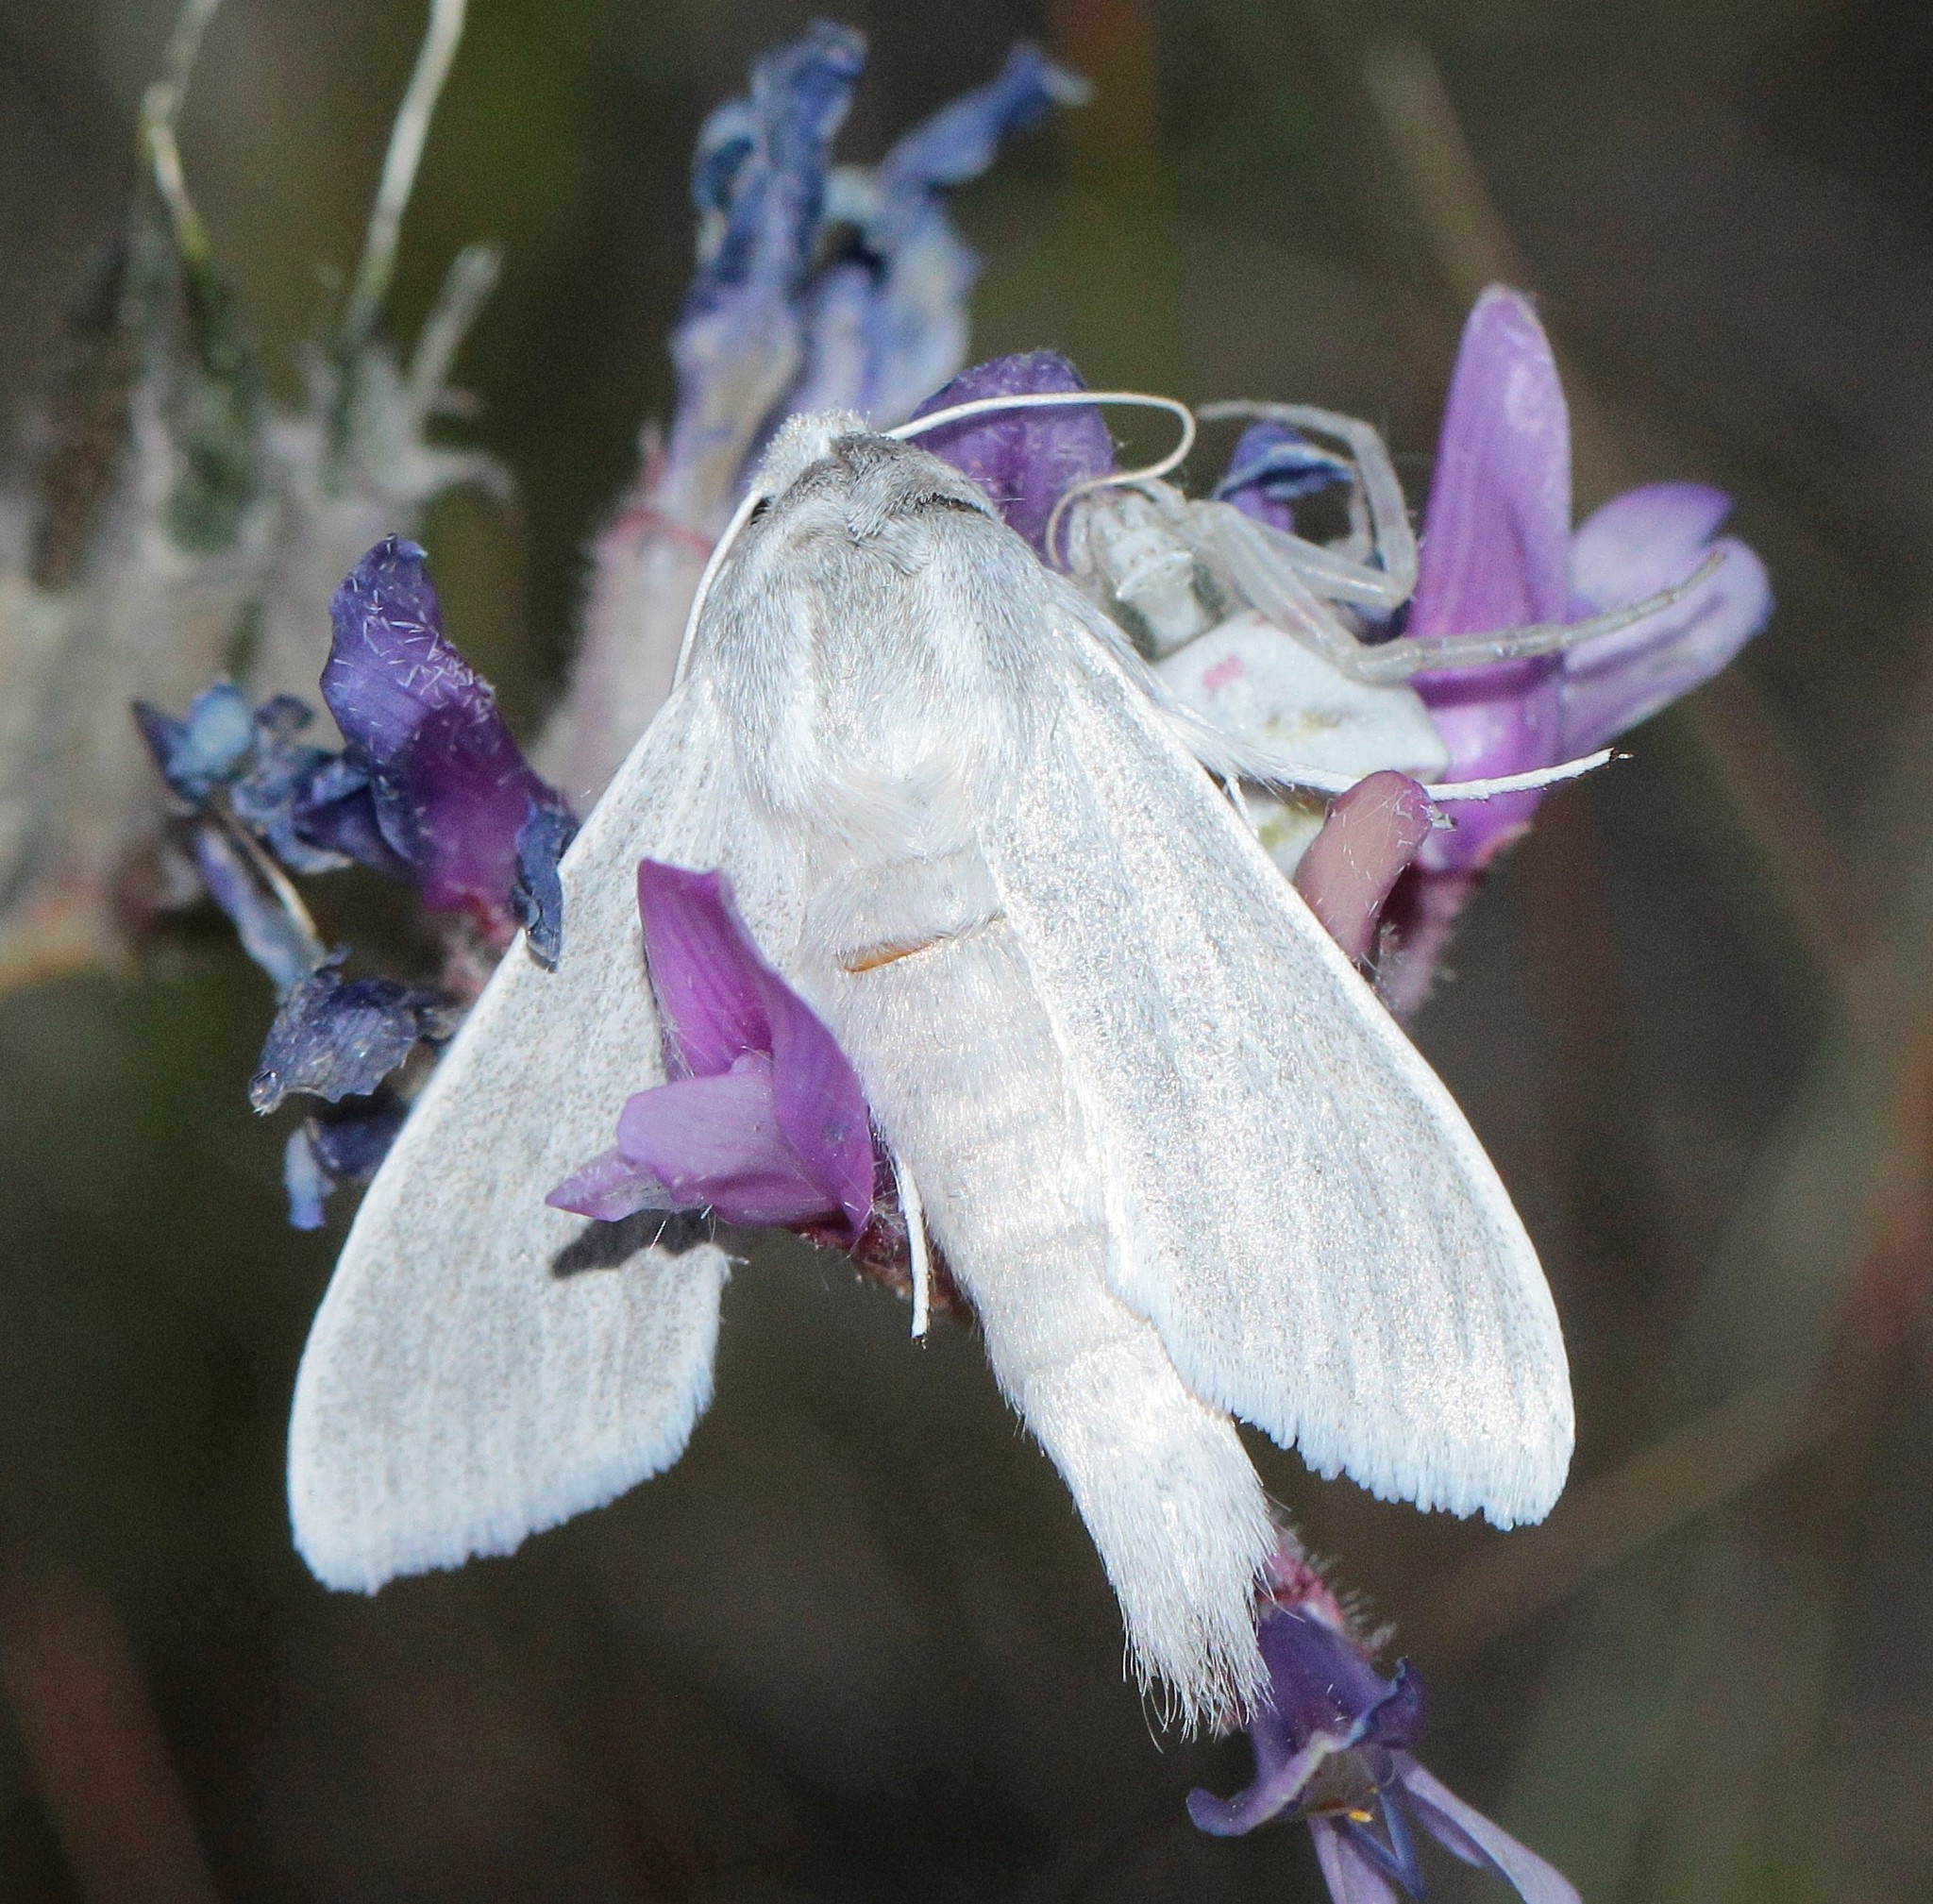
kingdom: Animalia
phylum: Arthropoda
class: Insecta
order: Lepidoptera
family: Noctuidae
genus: Cucullia
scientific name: Cucullia lactea
